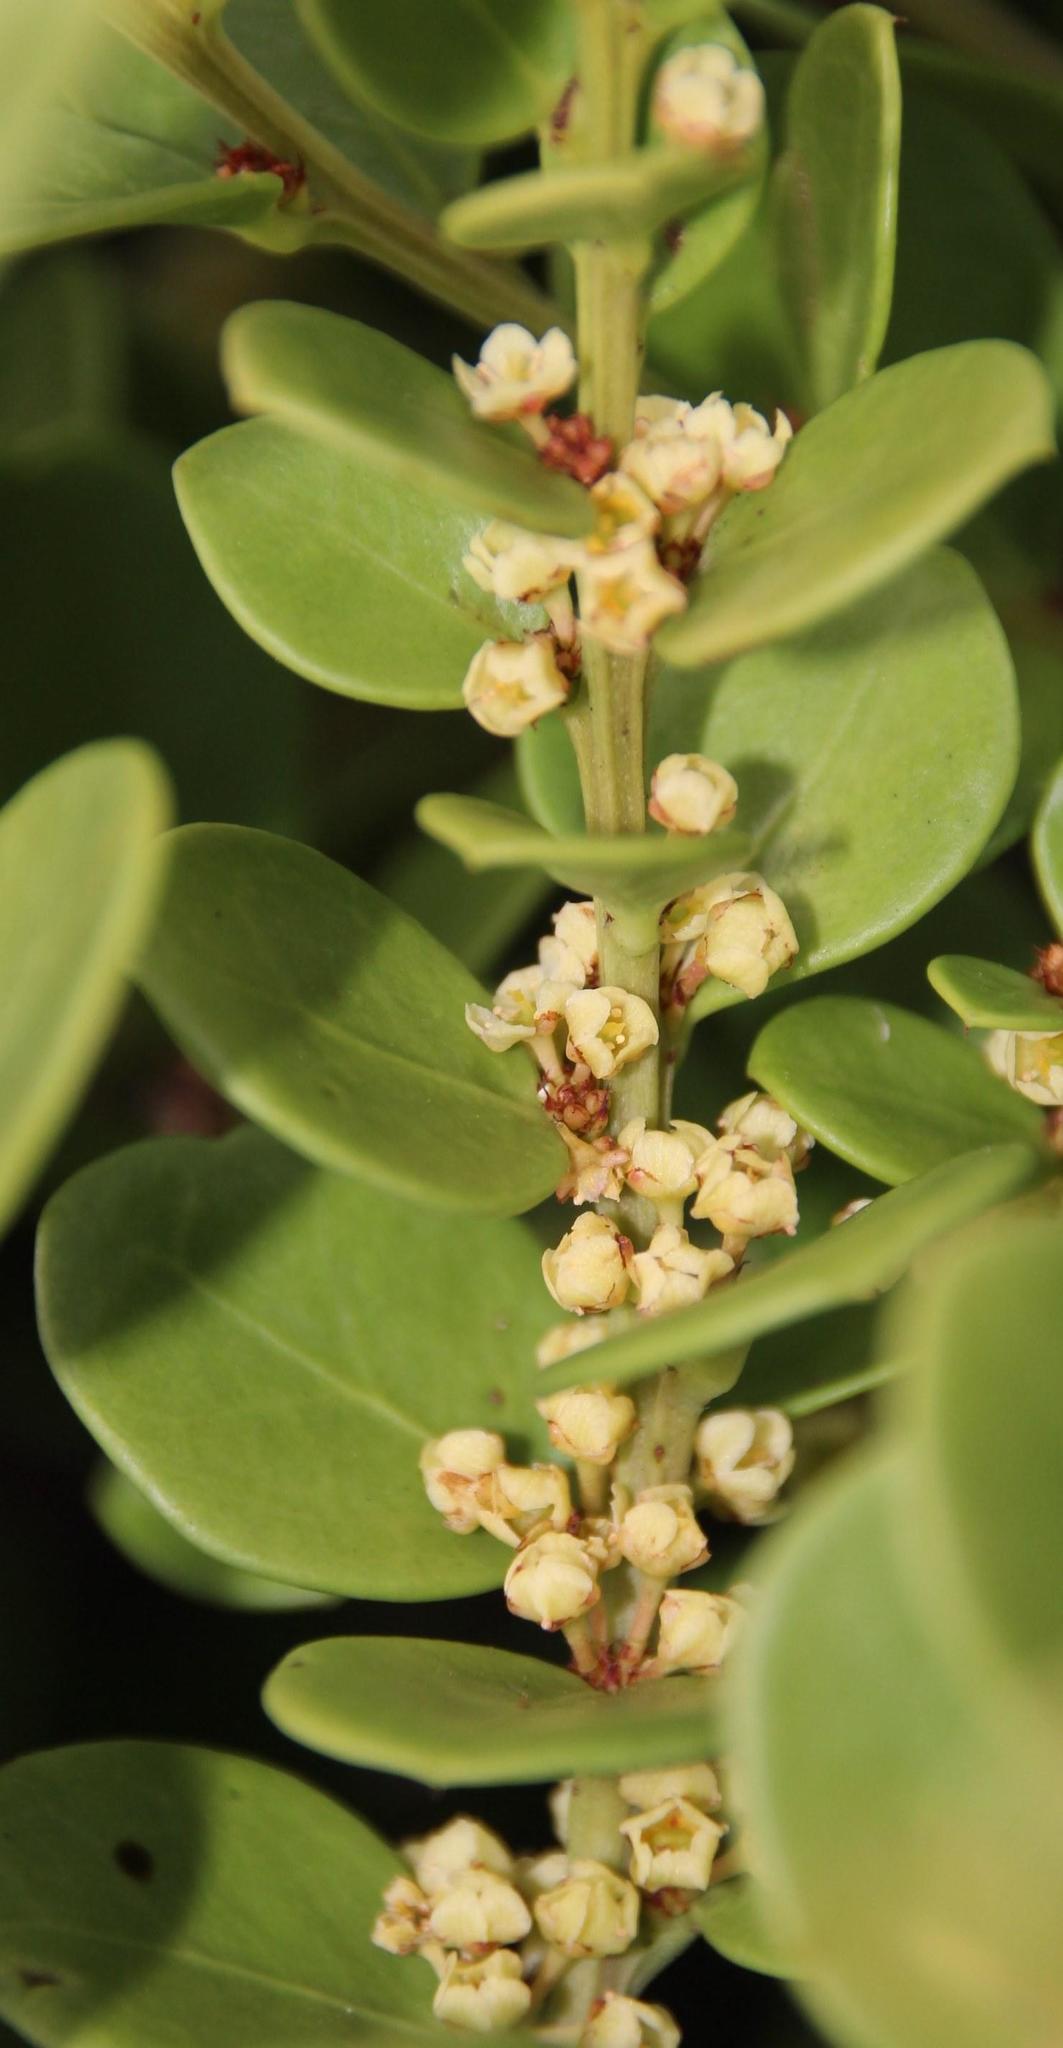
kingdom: Plantae
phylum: Tracheophyta
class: Magnoliopsida
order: Celastrales
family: Celastraceae
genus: Gymnosporia
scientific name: Gymnosporia lucida
